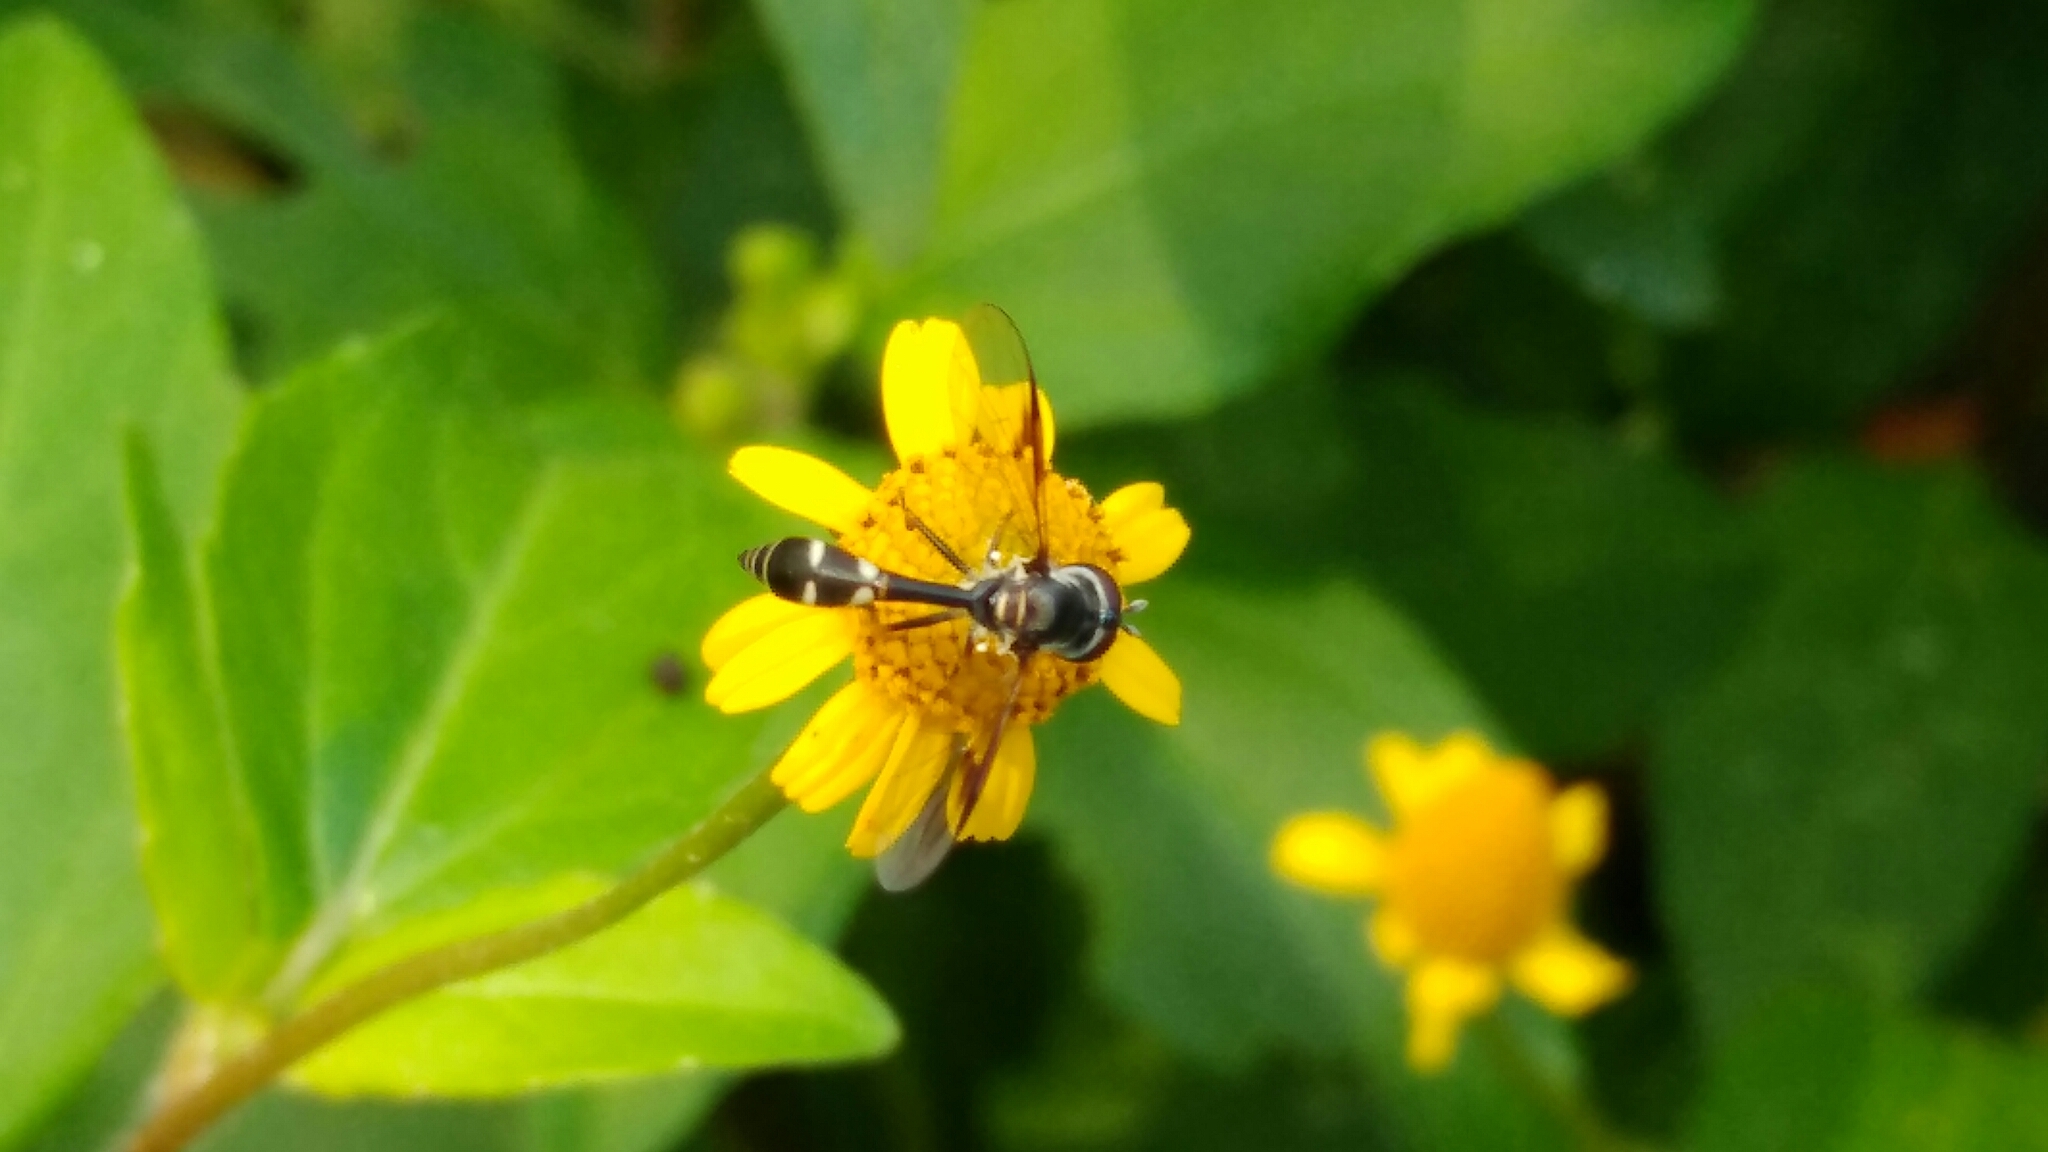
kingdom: Animalia
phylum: Arthropoda
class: Insecta
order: Diptera
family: Syrphidae
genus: Dioprosopa
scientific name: Dioprosopa clavatus
